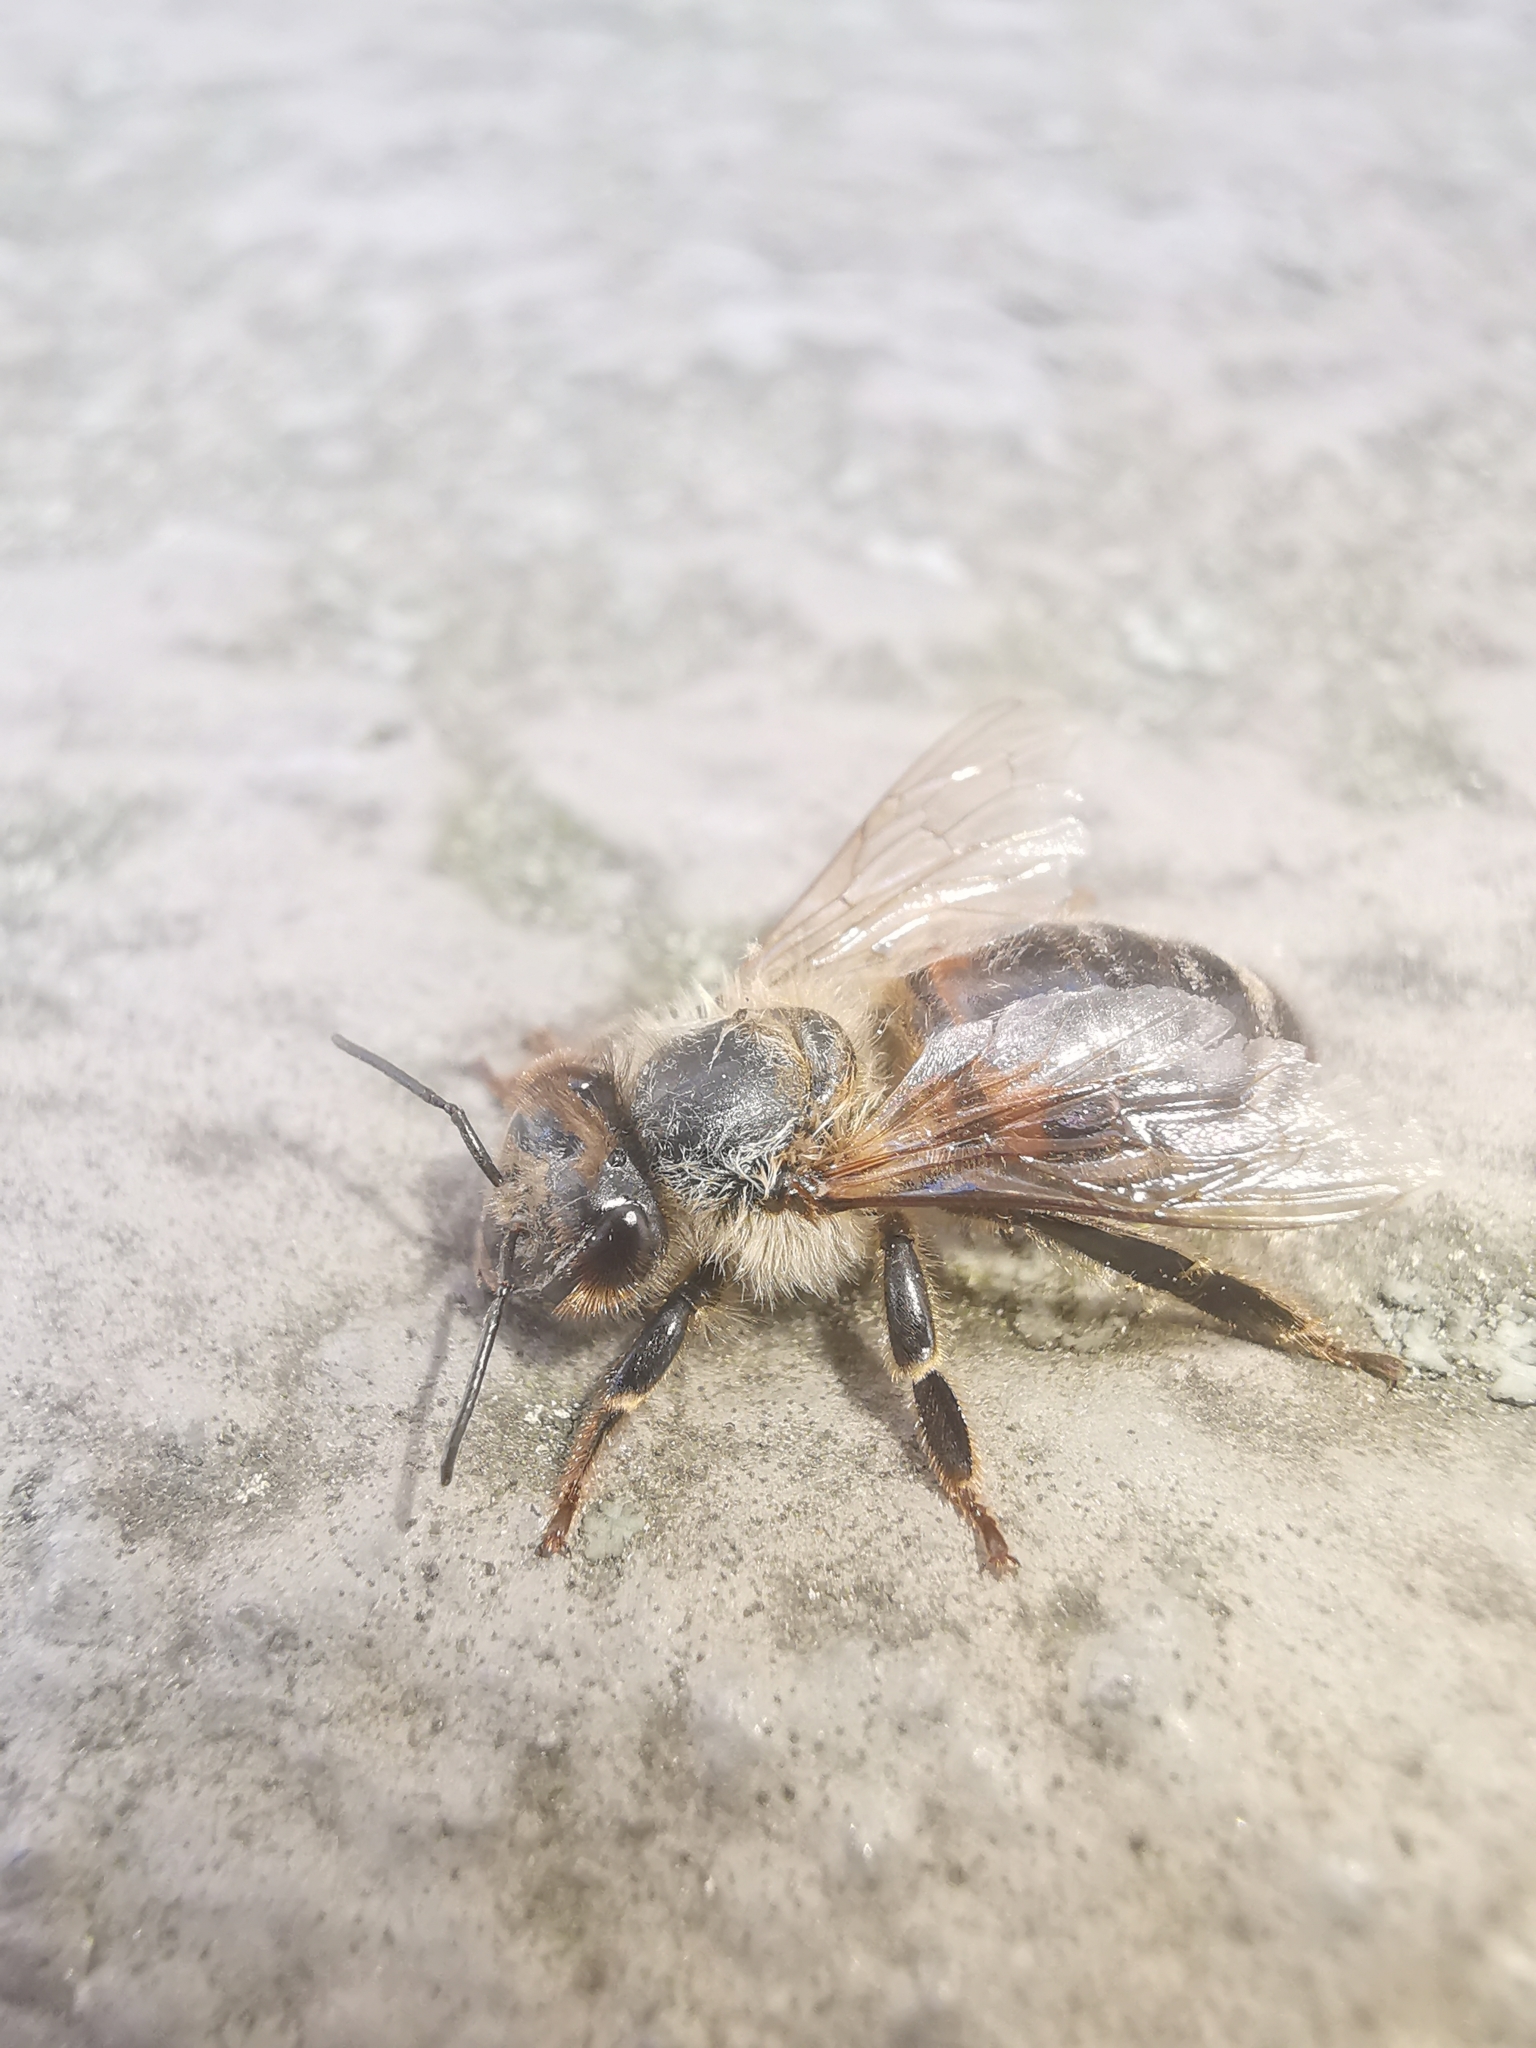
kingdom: Animalia
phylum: Arthropoda
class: Insecta
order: Hymenoptera
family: Apidae
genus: Apis
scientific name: Apis mellifera
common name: Honey bee
